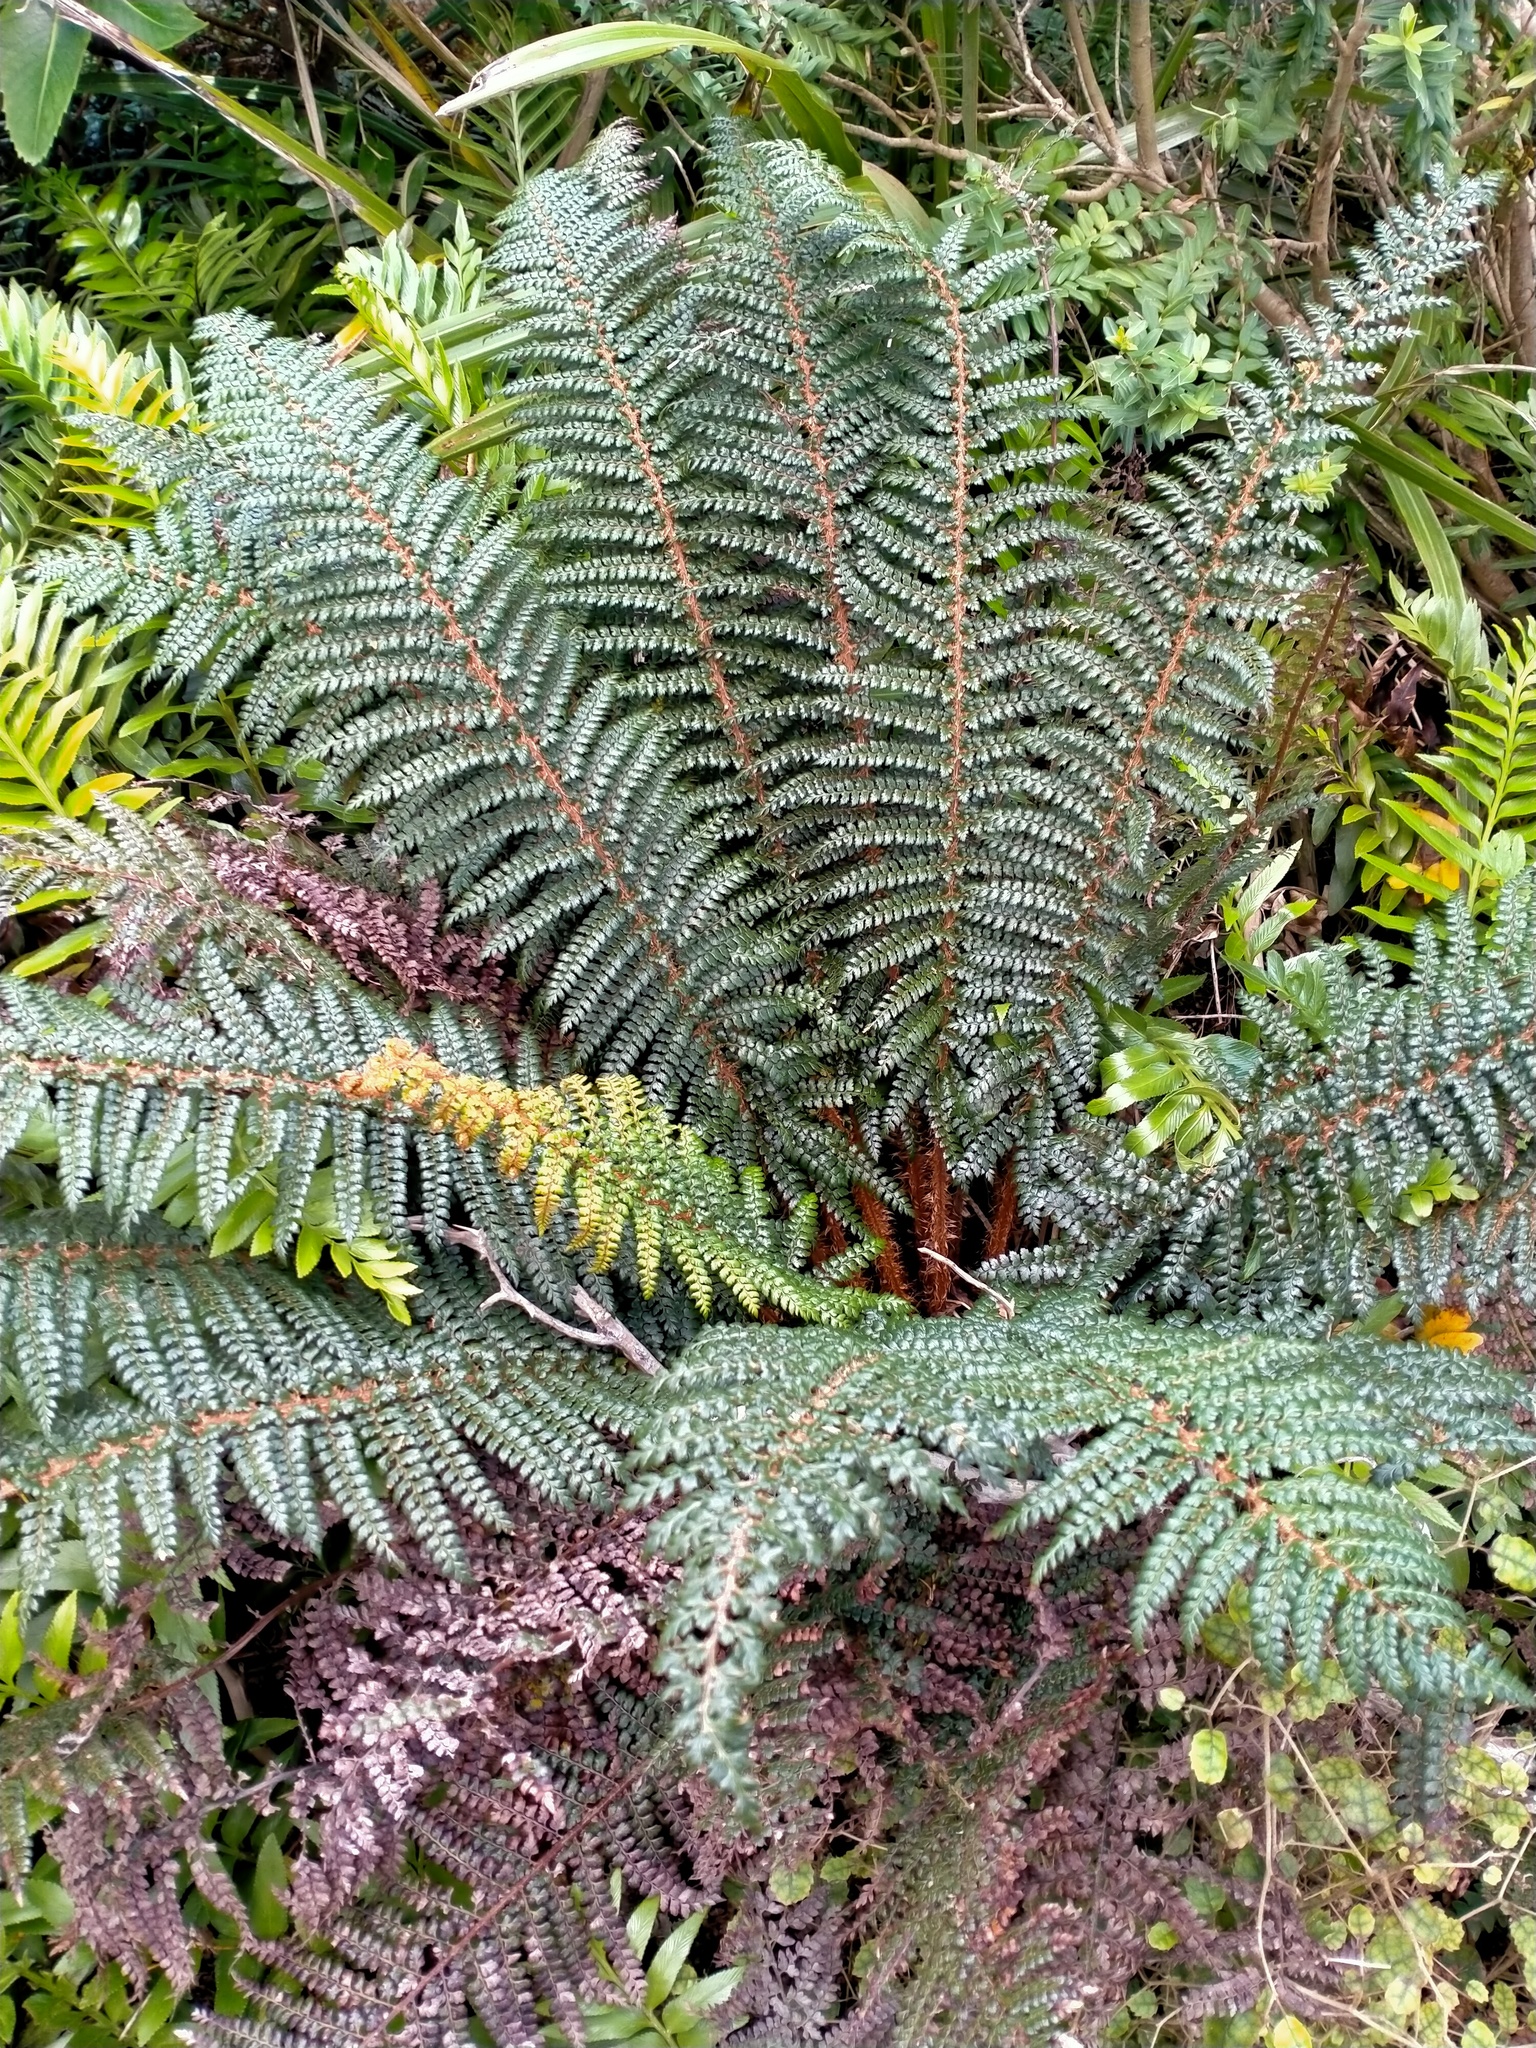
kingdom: Plantae
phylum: Tracheophyta
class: Polypodiopsida
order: Polypodiales
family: Dryopteridaceae
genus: Polystichum
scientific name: Polystichum vestitum
